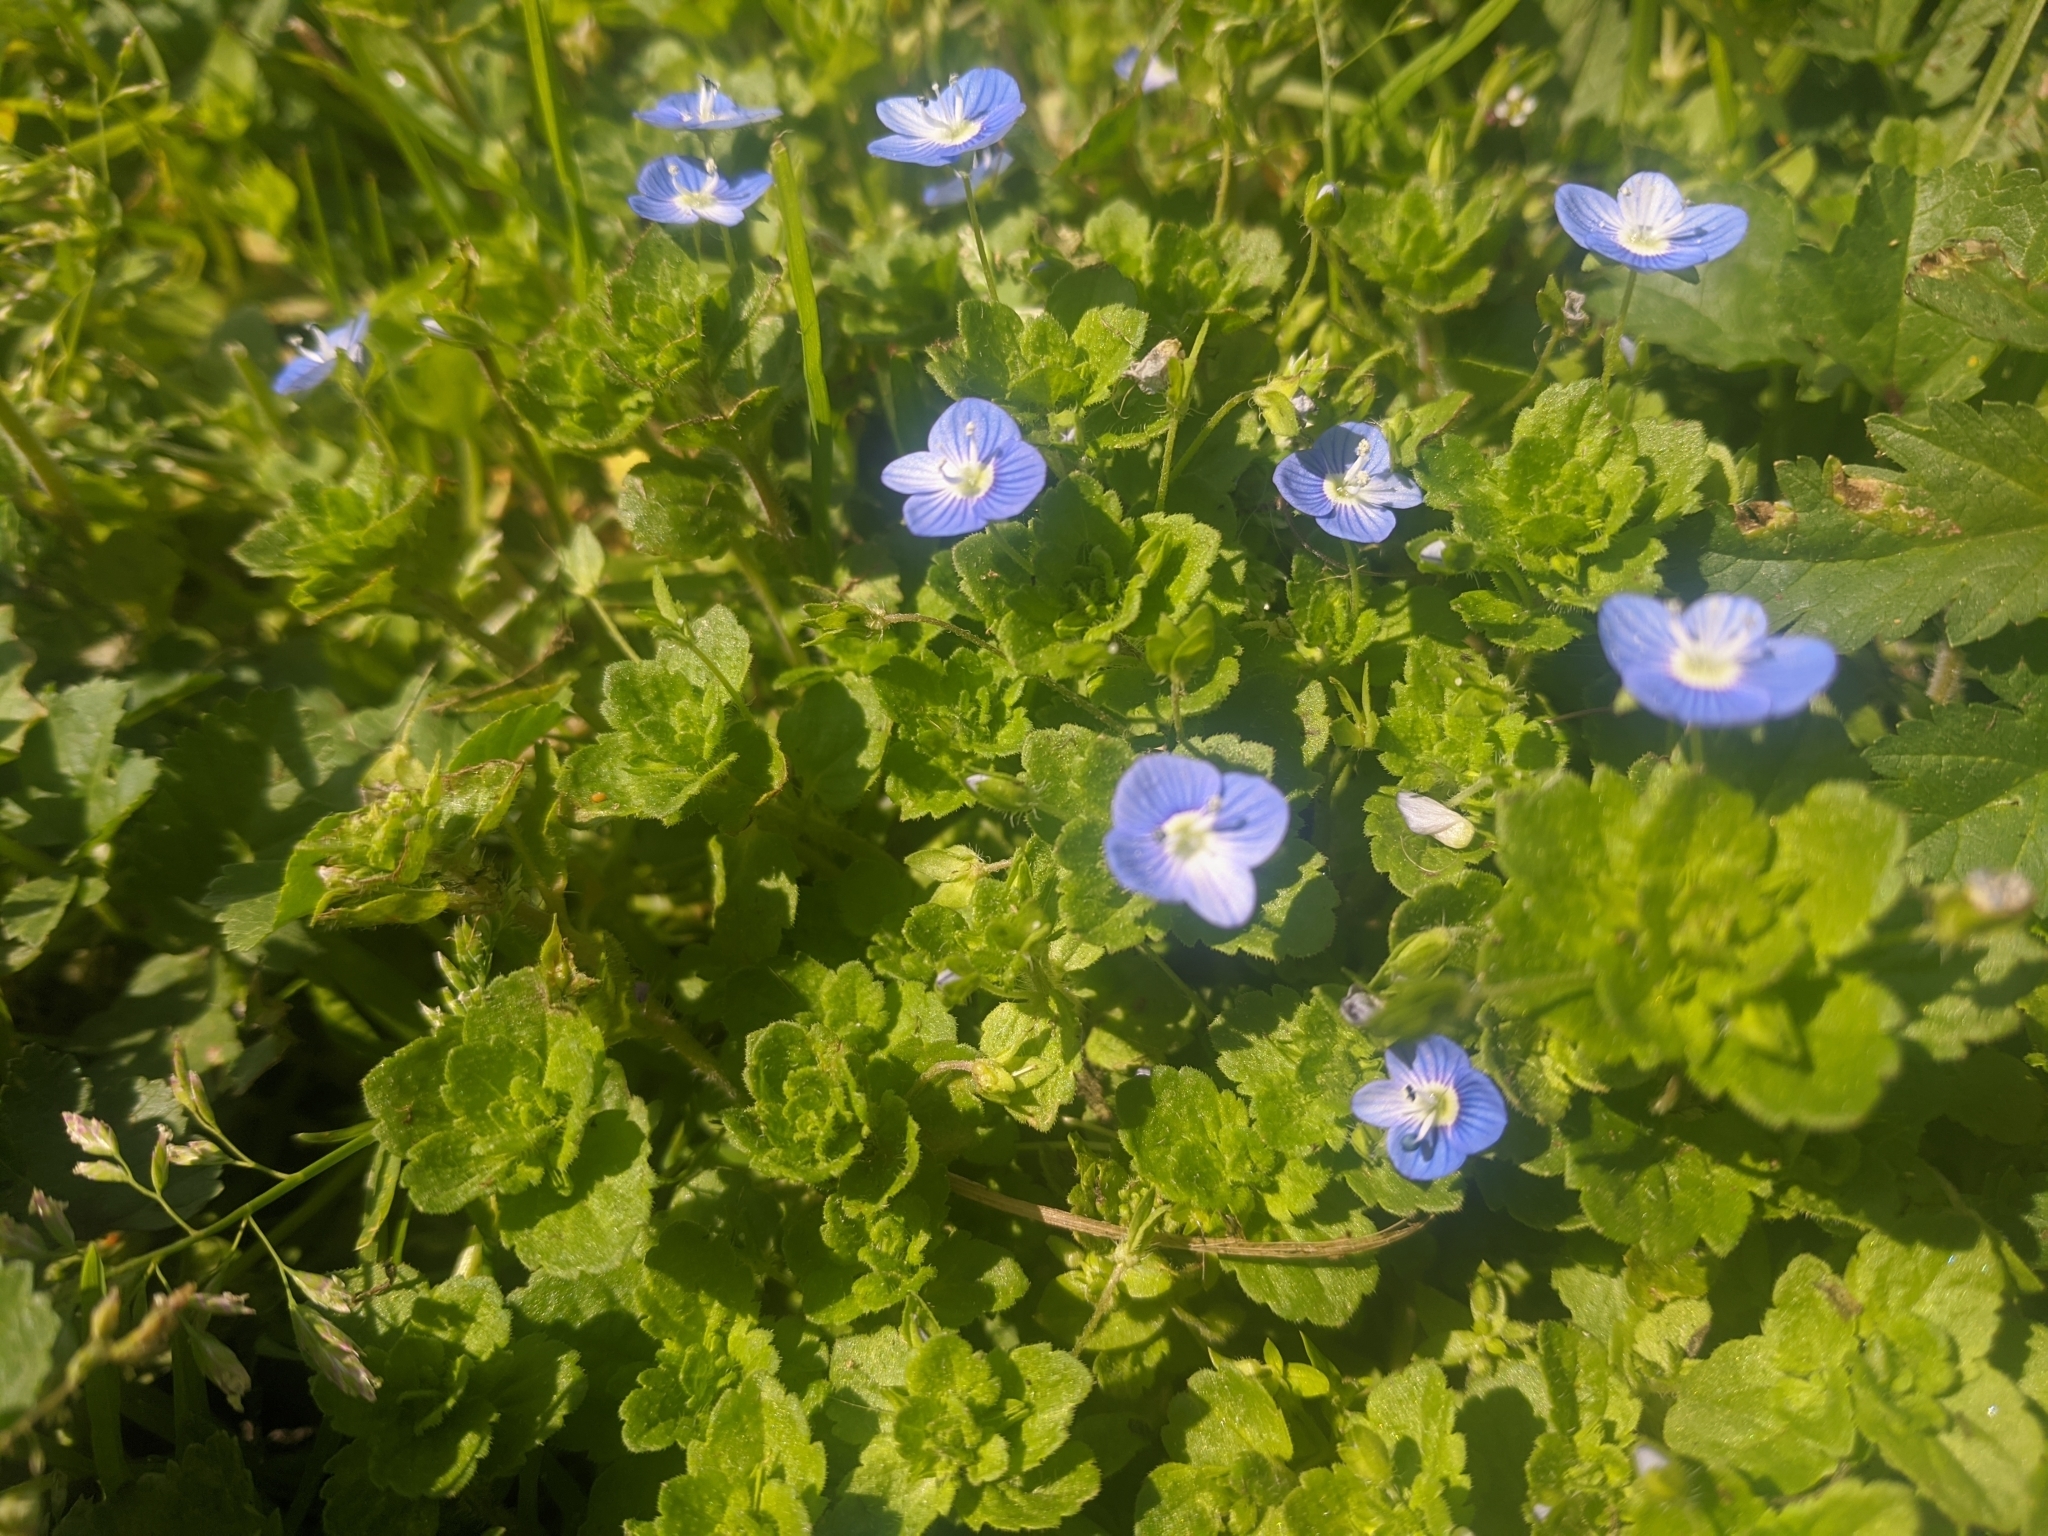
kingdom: Plantae
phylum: Tracheophyta
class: Magnoliopsida
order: Lamiales
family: Plantaginaceae
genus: Veronica
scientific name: Veronica persica
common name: Common field-speedwell
